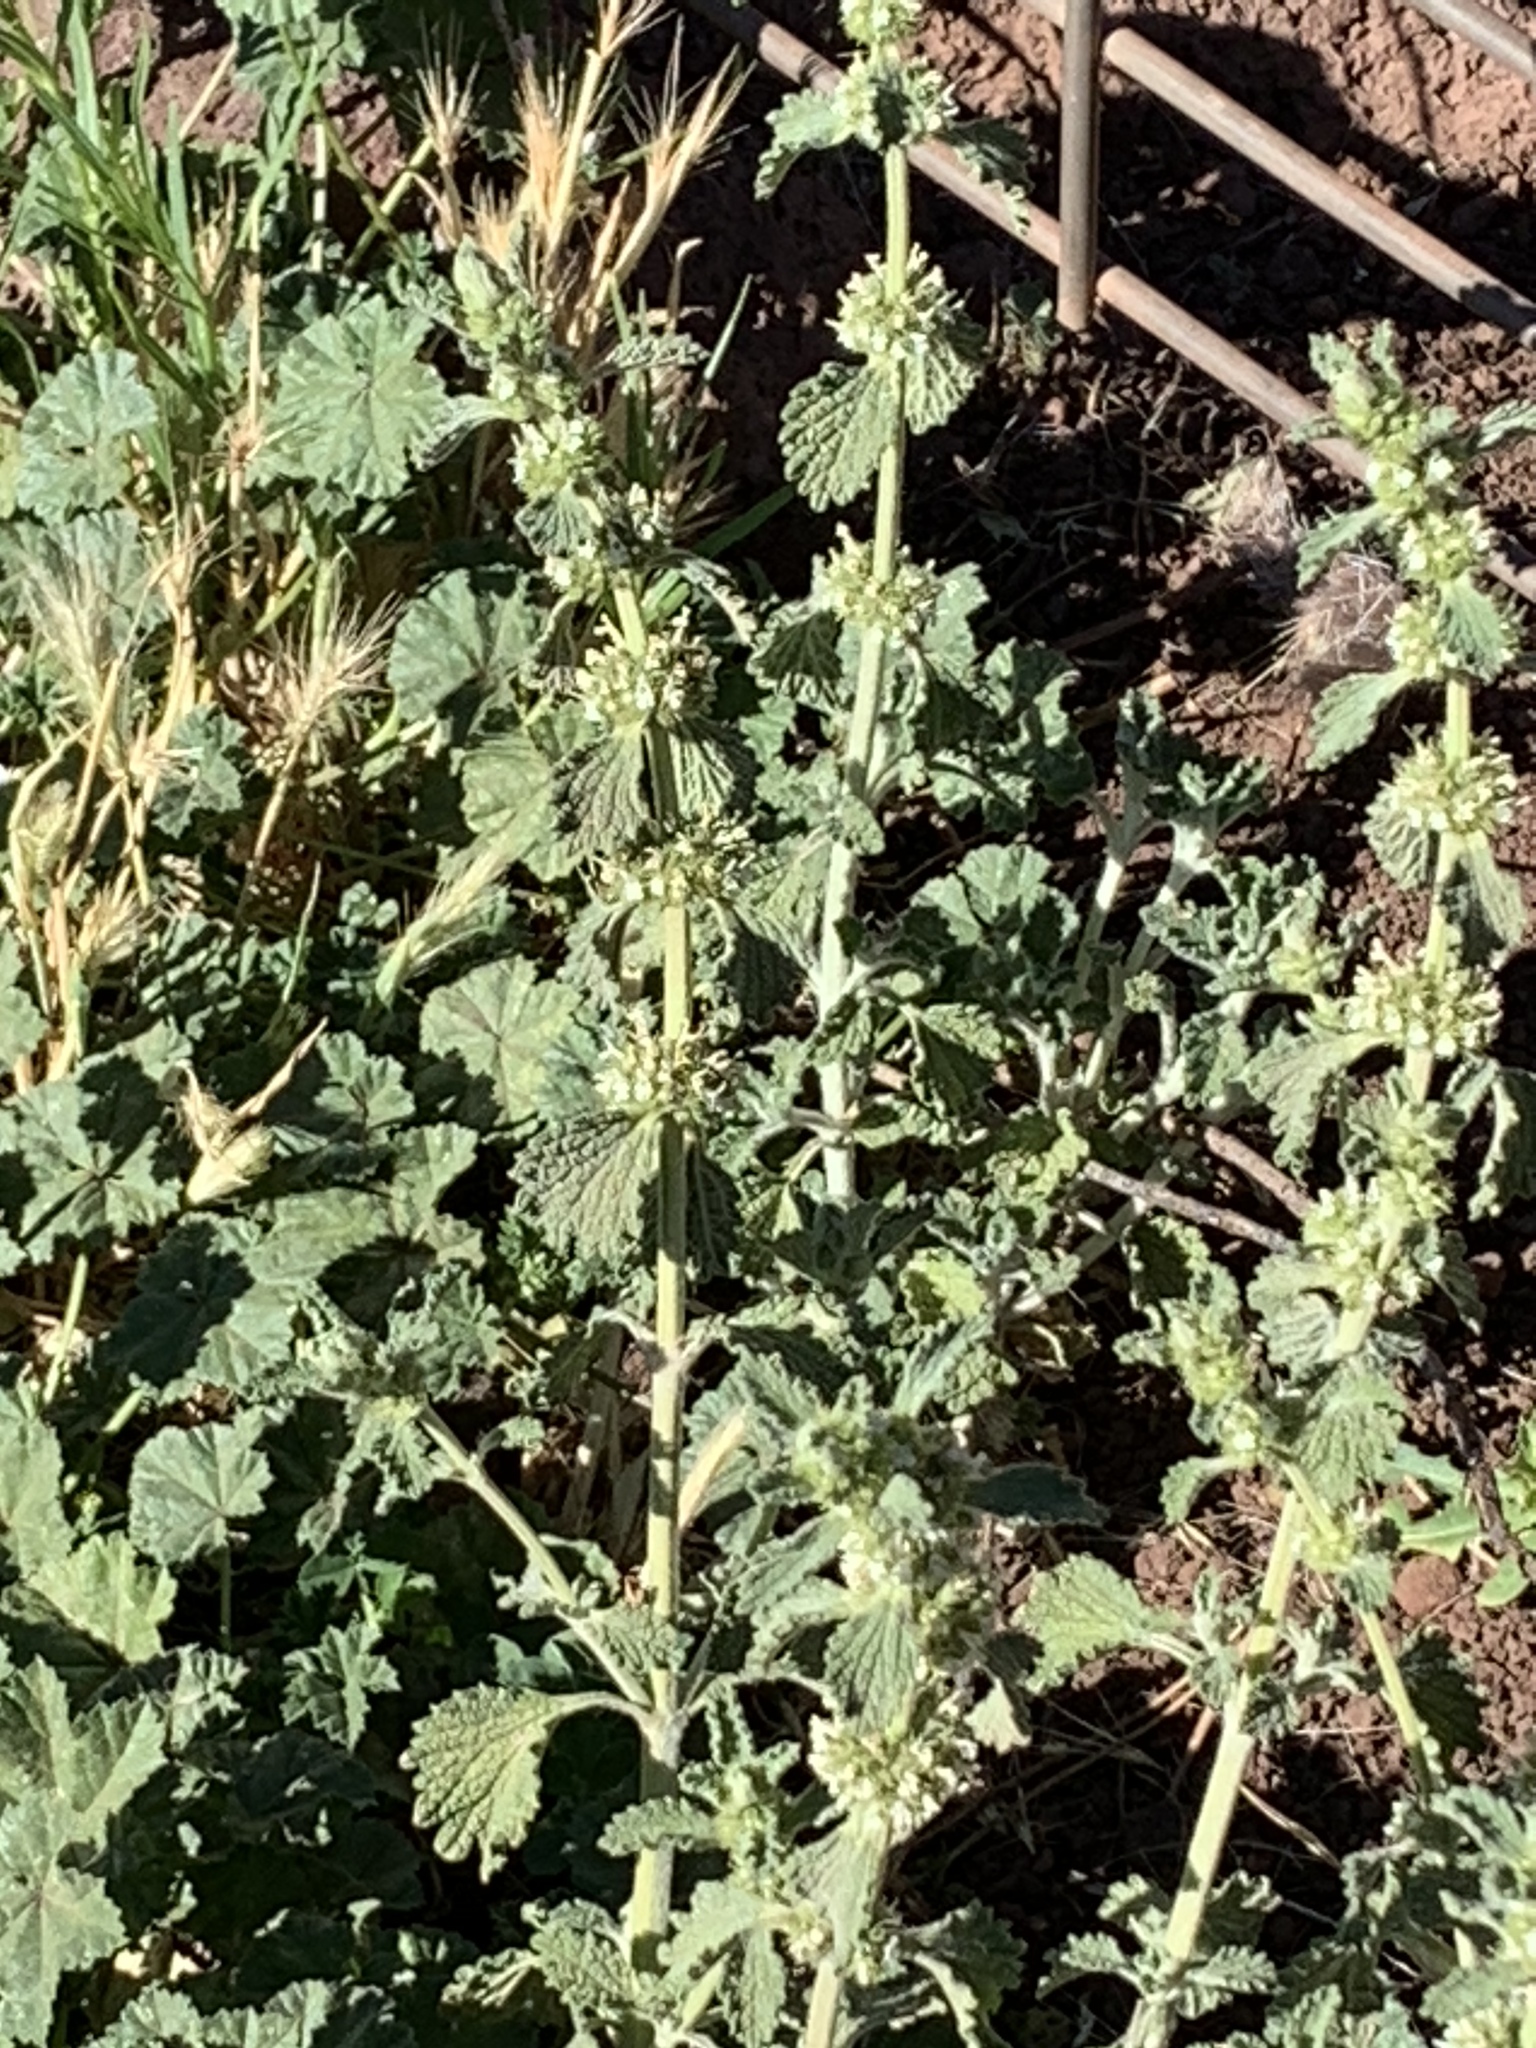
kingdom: Plantae
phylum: Tracheophyta
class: Magnoliopsida
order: Lamiales
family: Lamiaceae
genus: Marrubium
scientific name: Marrubium vulgare
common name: Horehound
